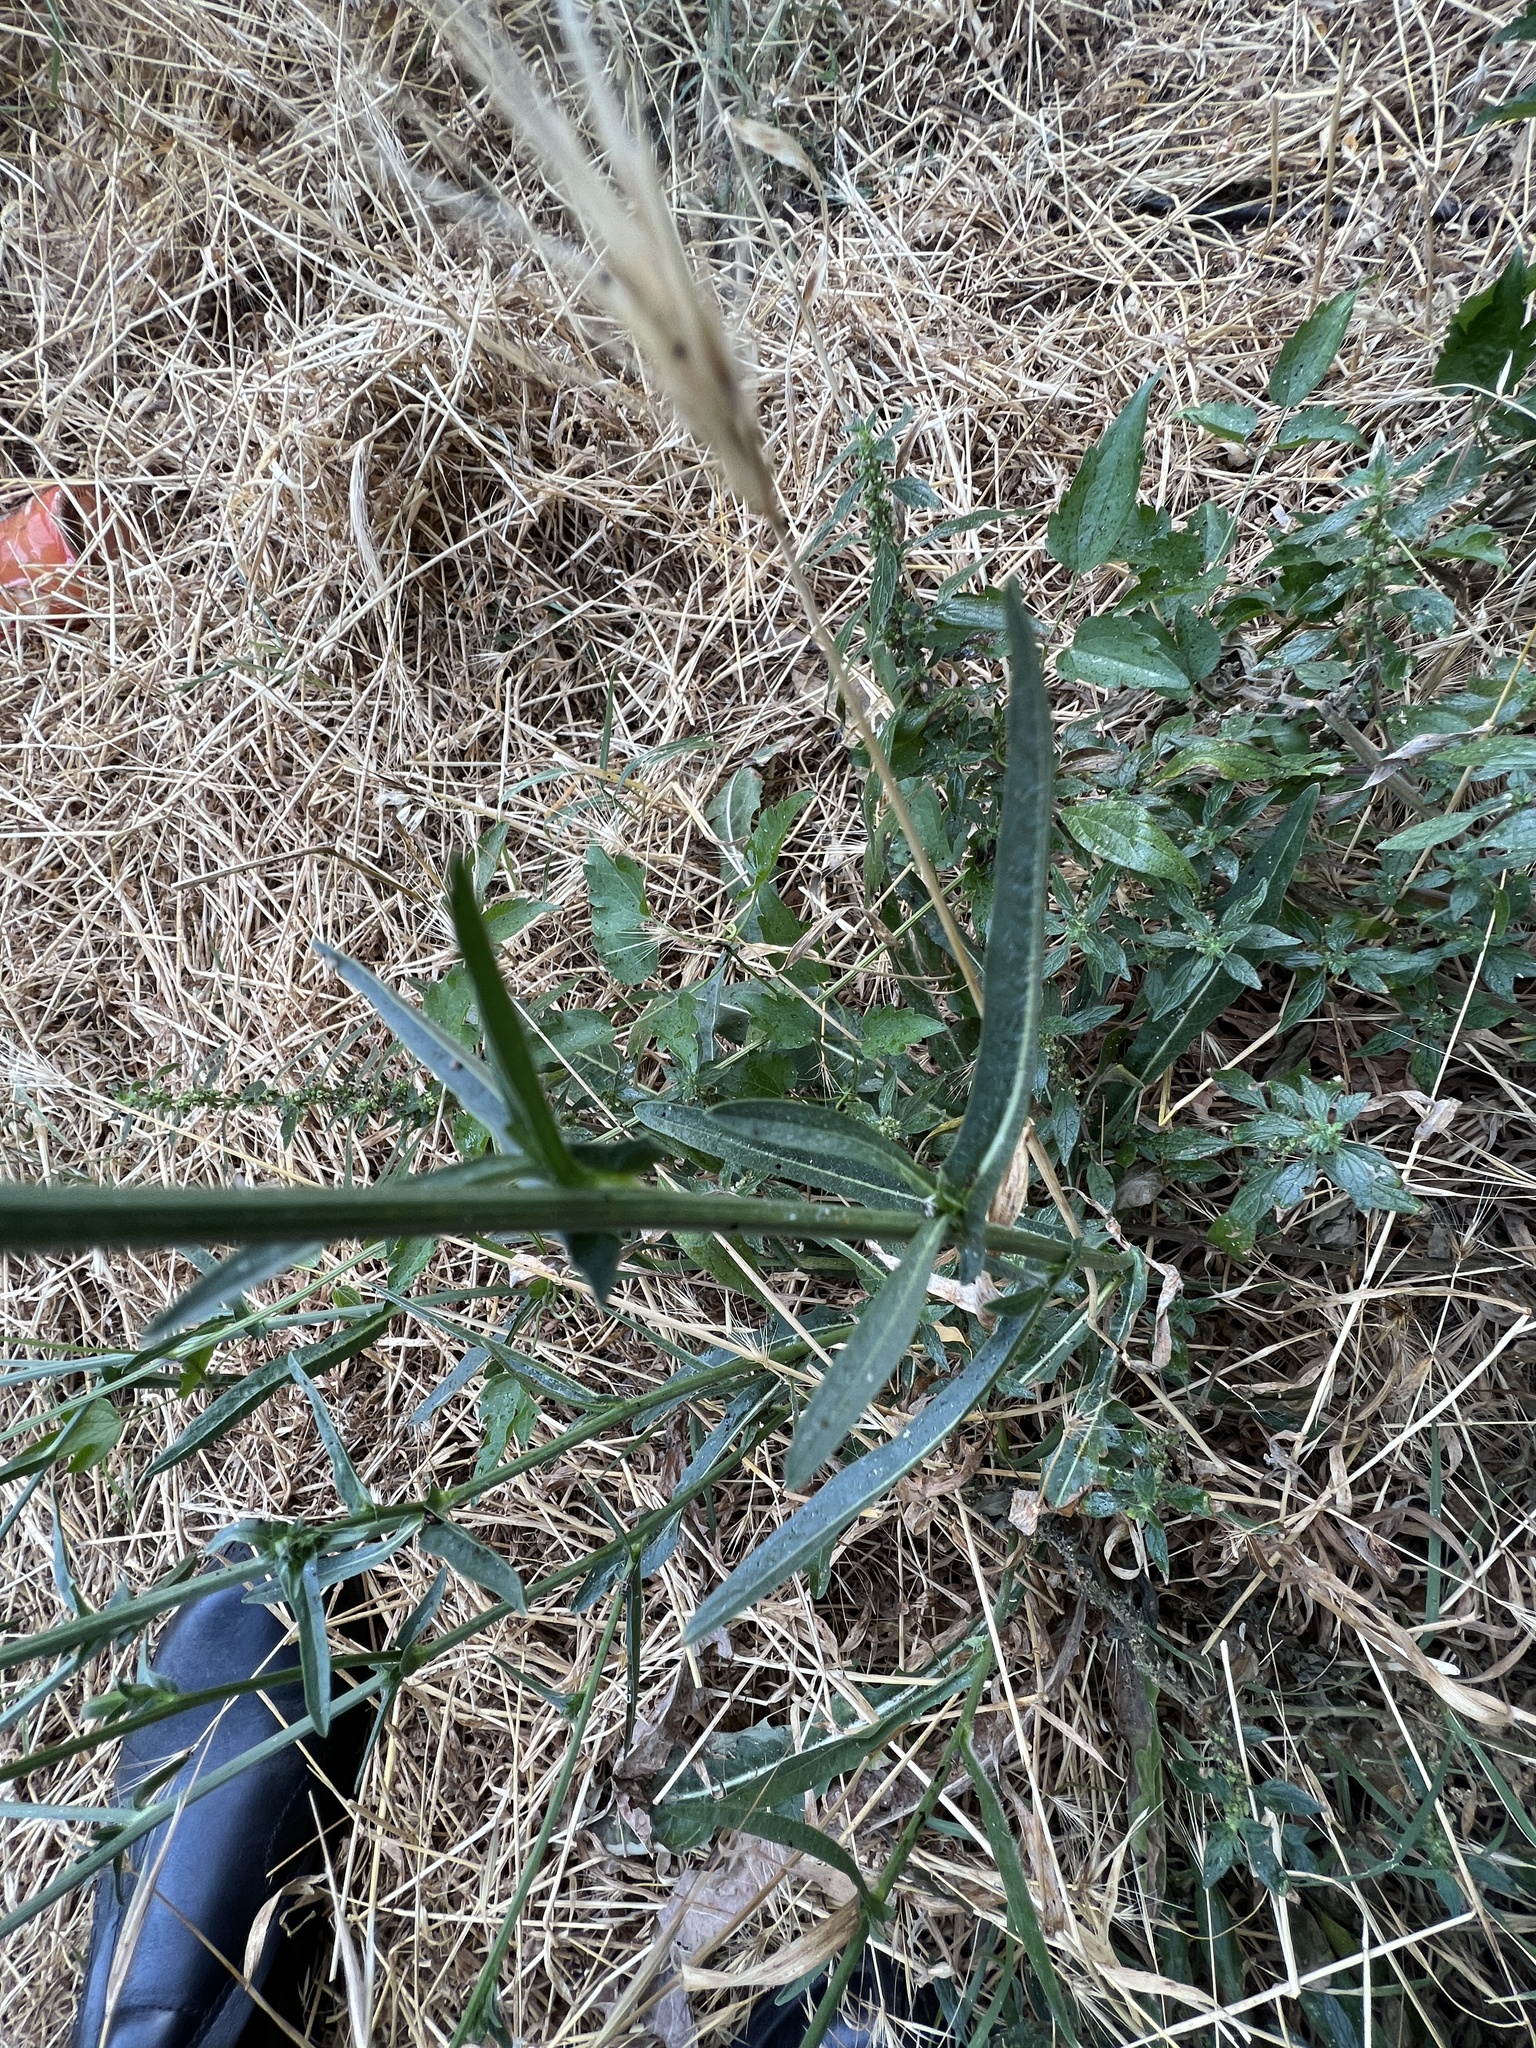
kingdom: Plantae
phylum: Tracheophyta
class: Magnoliopsida
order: Asterales
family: Asteraceae
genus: Cichorium
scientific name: Cichorium intybus
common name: Chicory
